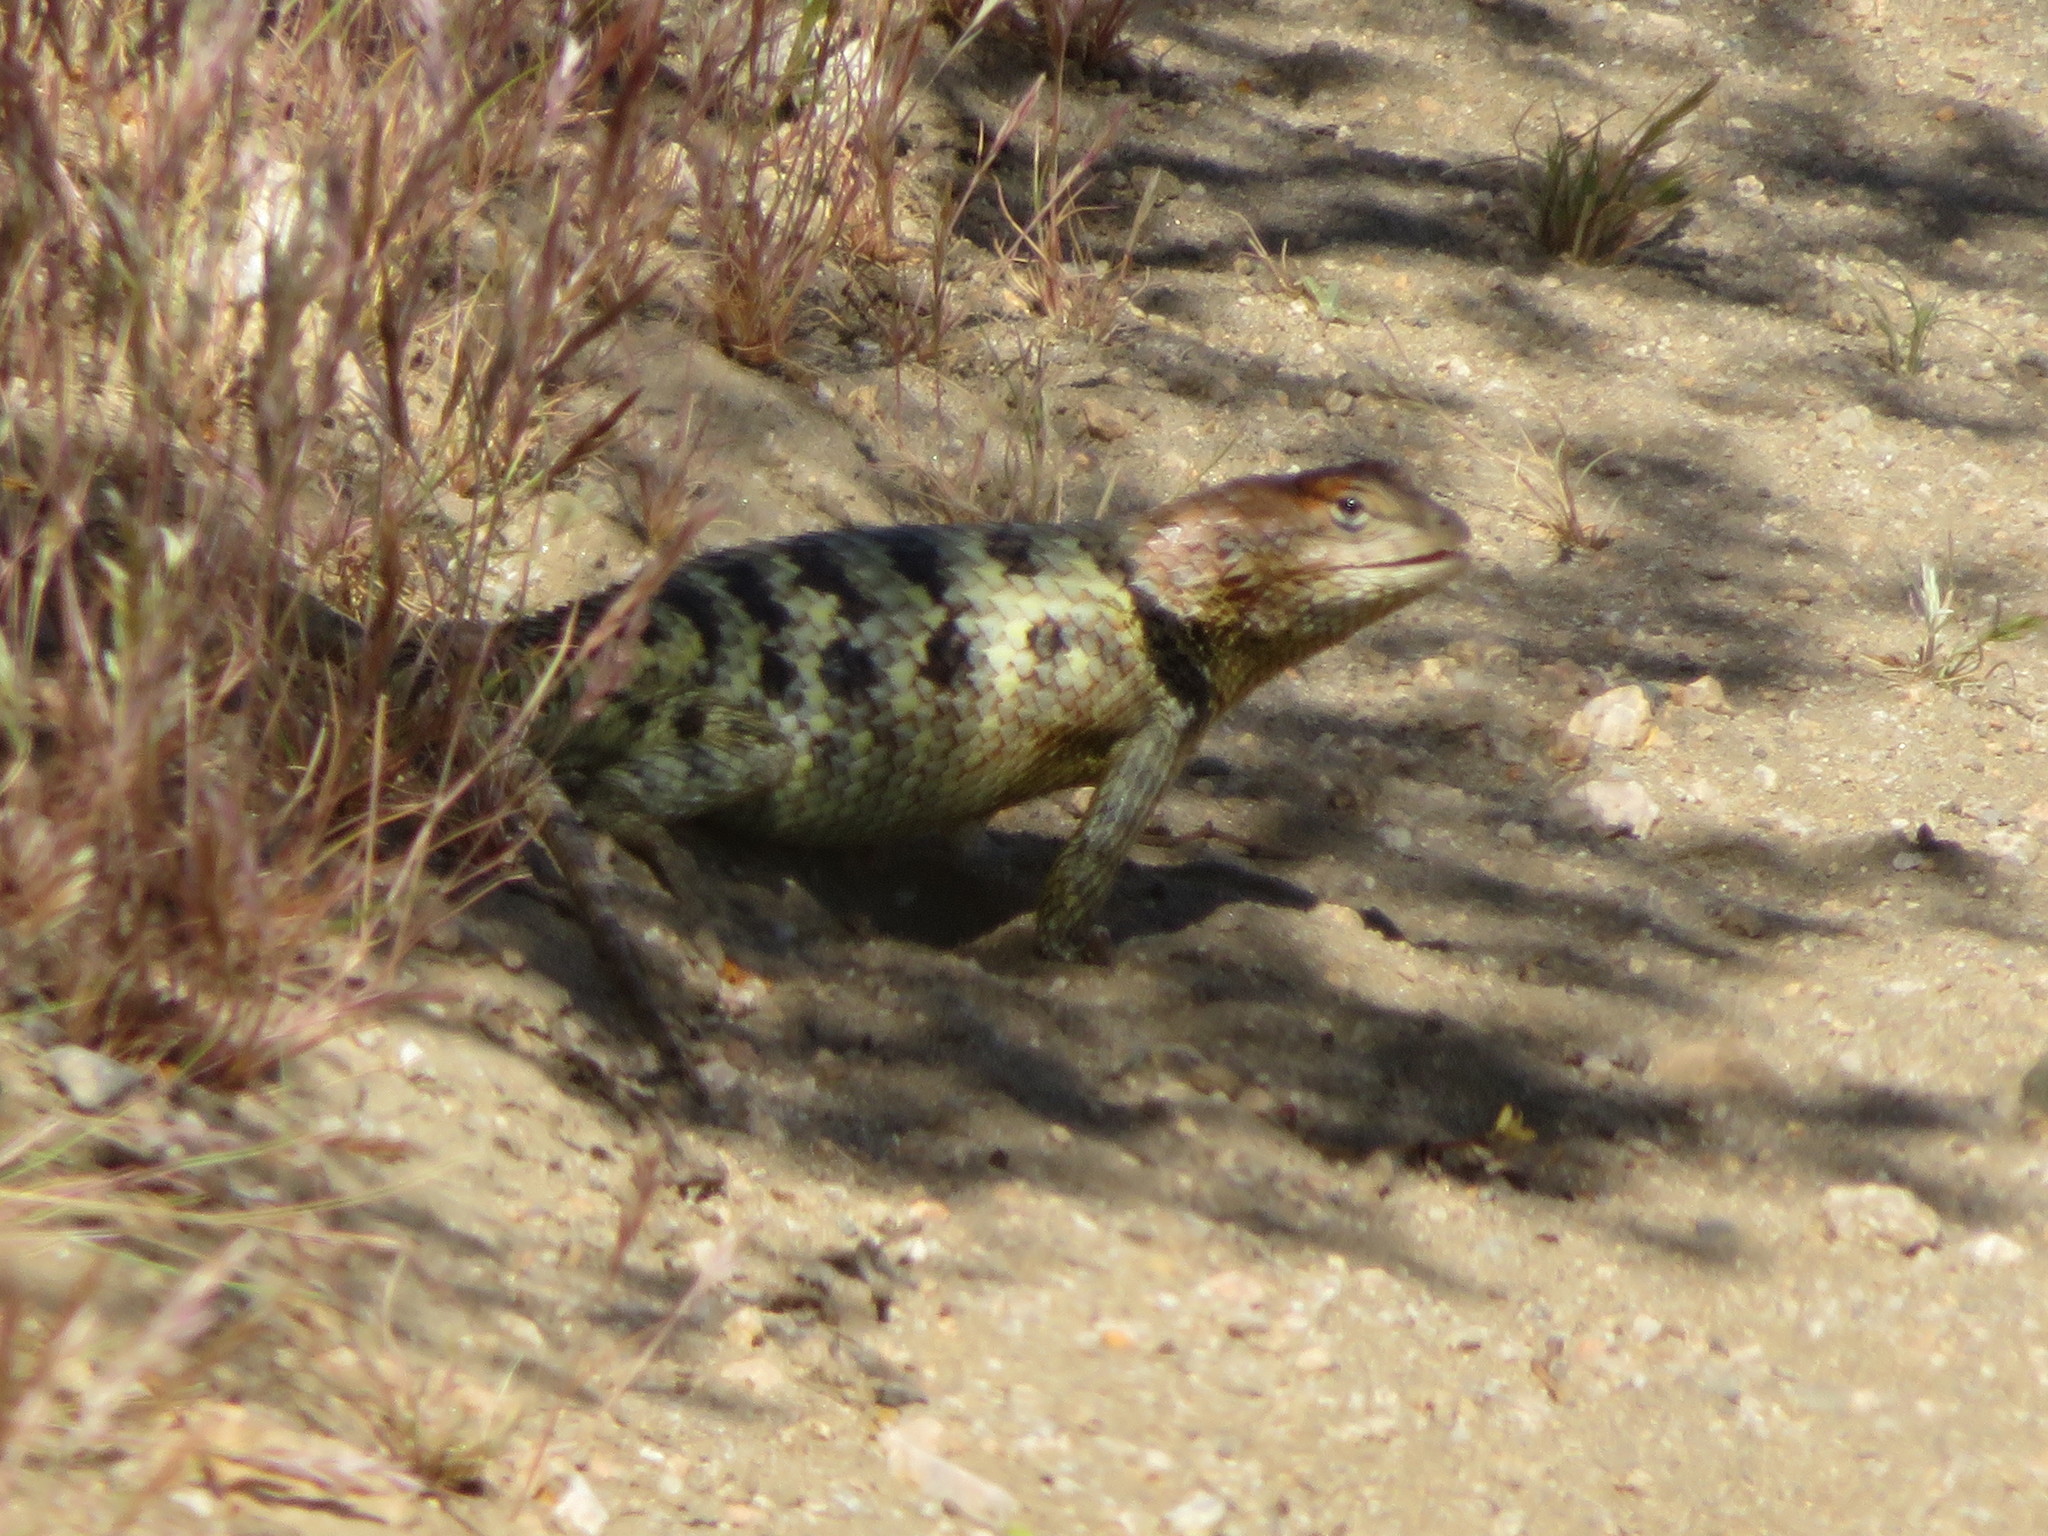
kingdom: Animalia
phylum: Chordata
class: Squamata
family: Phrynosomatidae
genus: Sceloporus
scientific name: Sceloporus magister
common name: Desert spiny lizard
